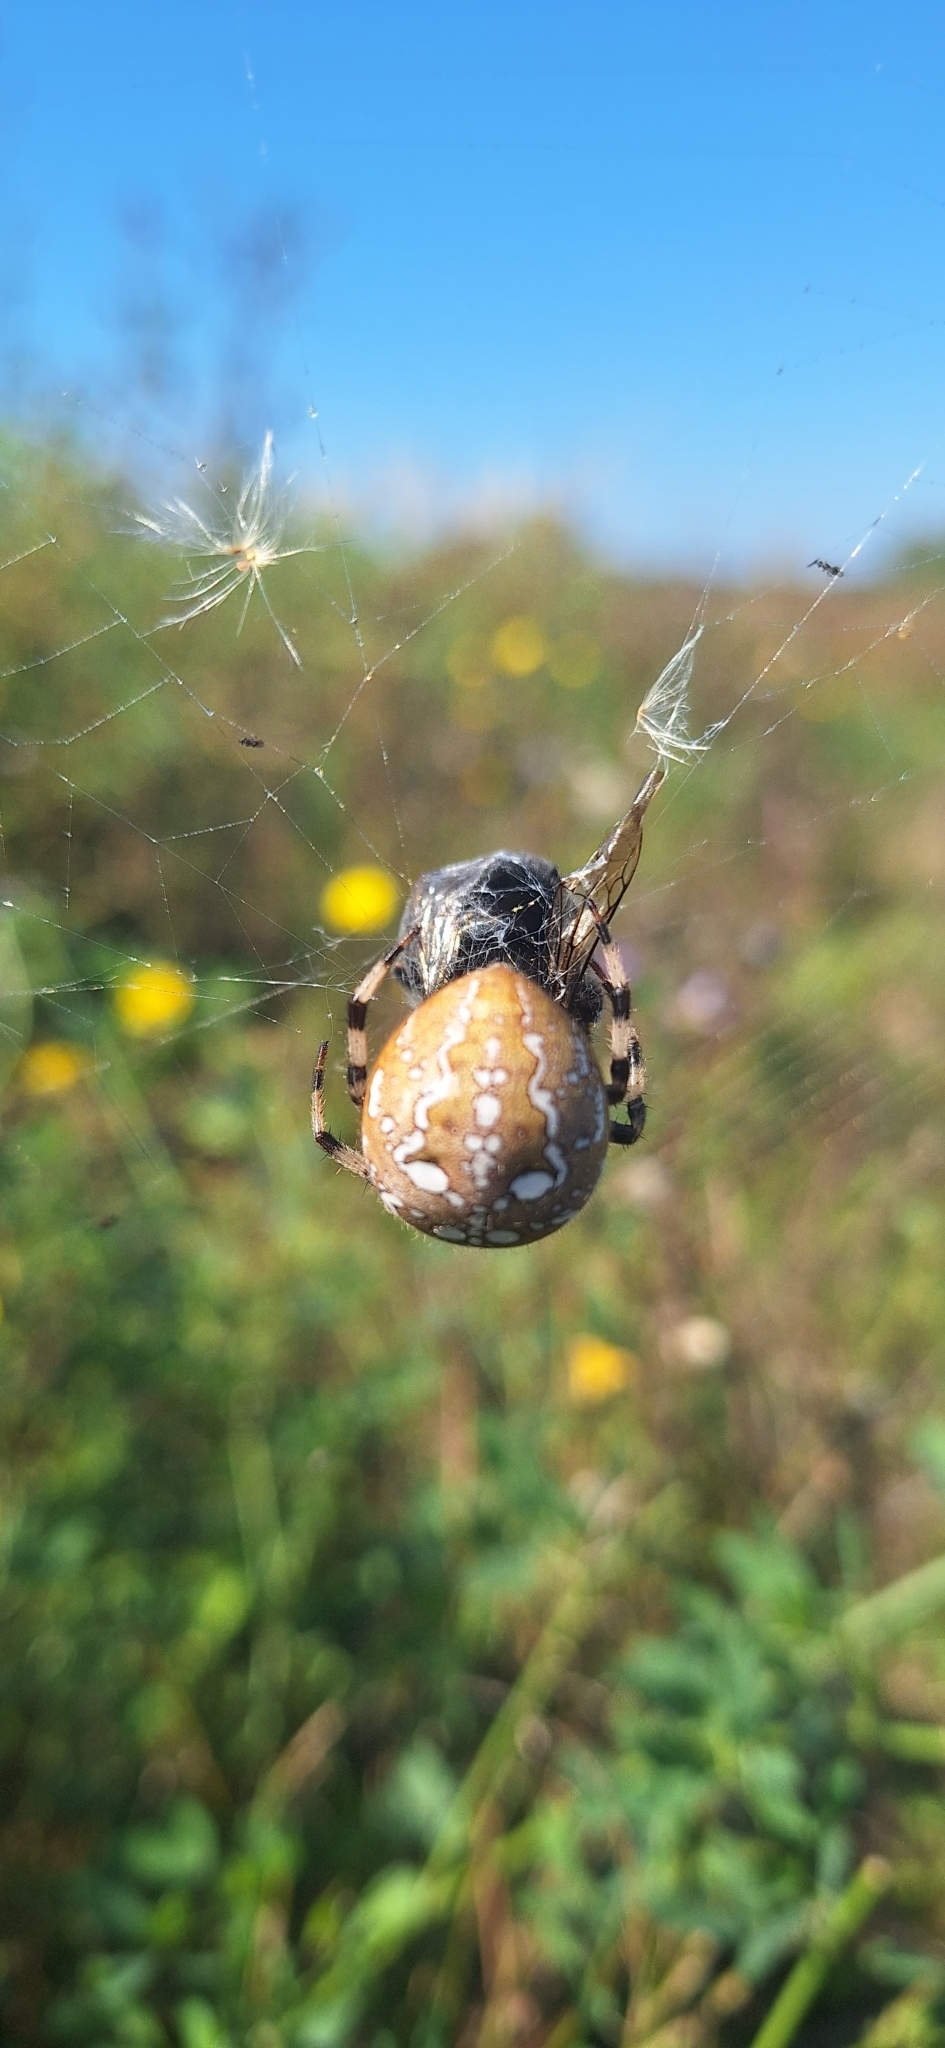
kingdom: Animalia
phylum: Arthropoda
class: Arachnida
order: Araneae
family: Araneidae
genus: Araneus
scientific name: Araneus quadratus
